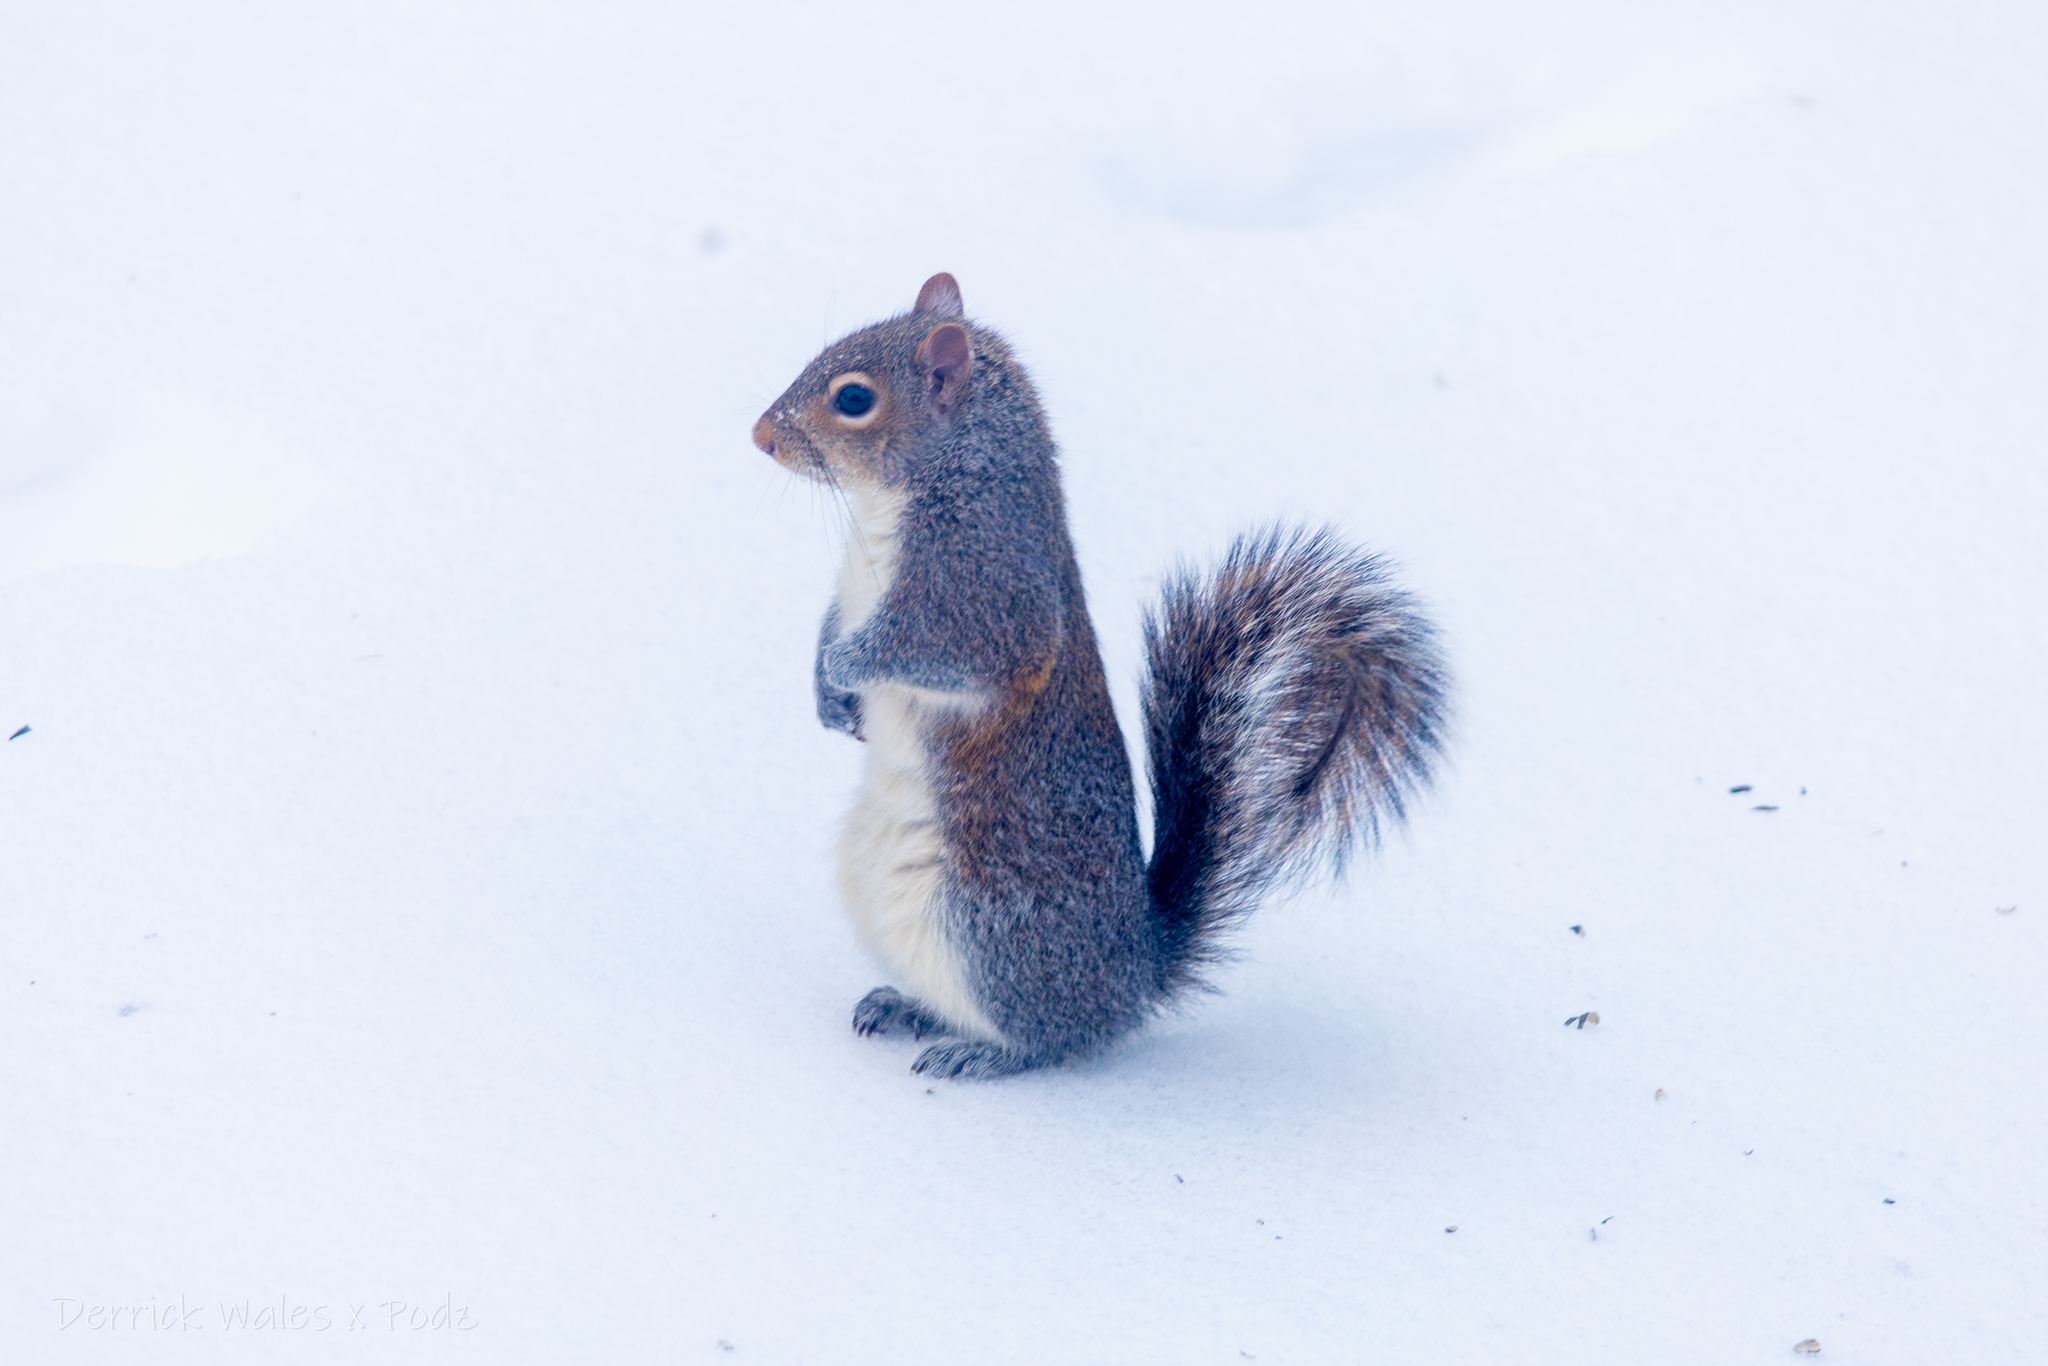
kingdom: Animalia
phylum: Chordata
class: Mammalia
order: Rodentia
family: Sciuridae
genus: Sciurus
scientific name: Sciurus carolinensis
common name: Eastern gray squirrel
